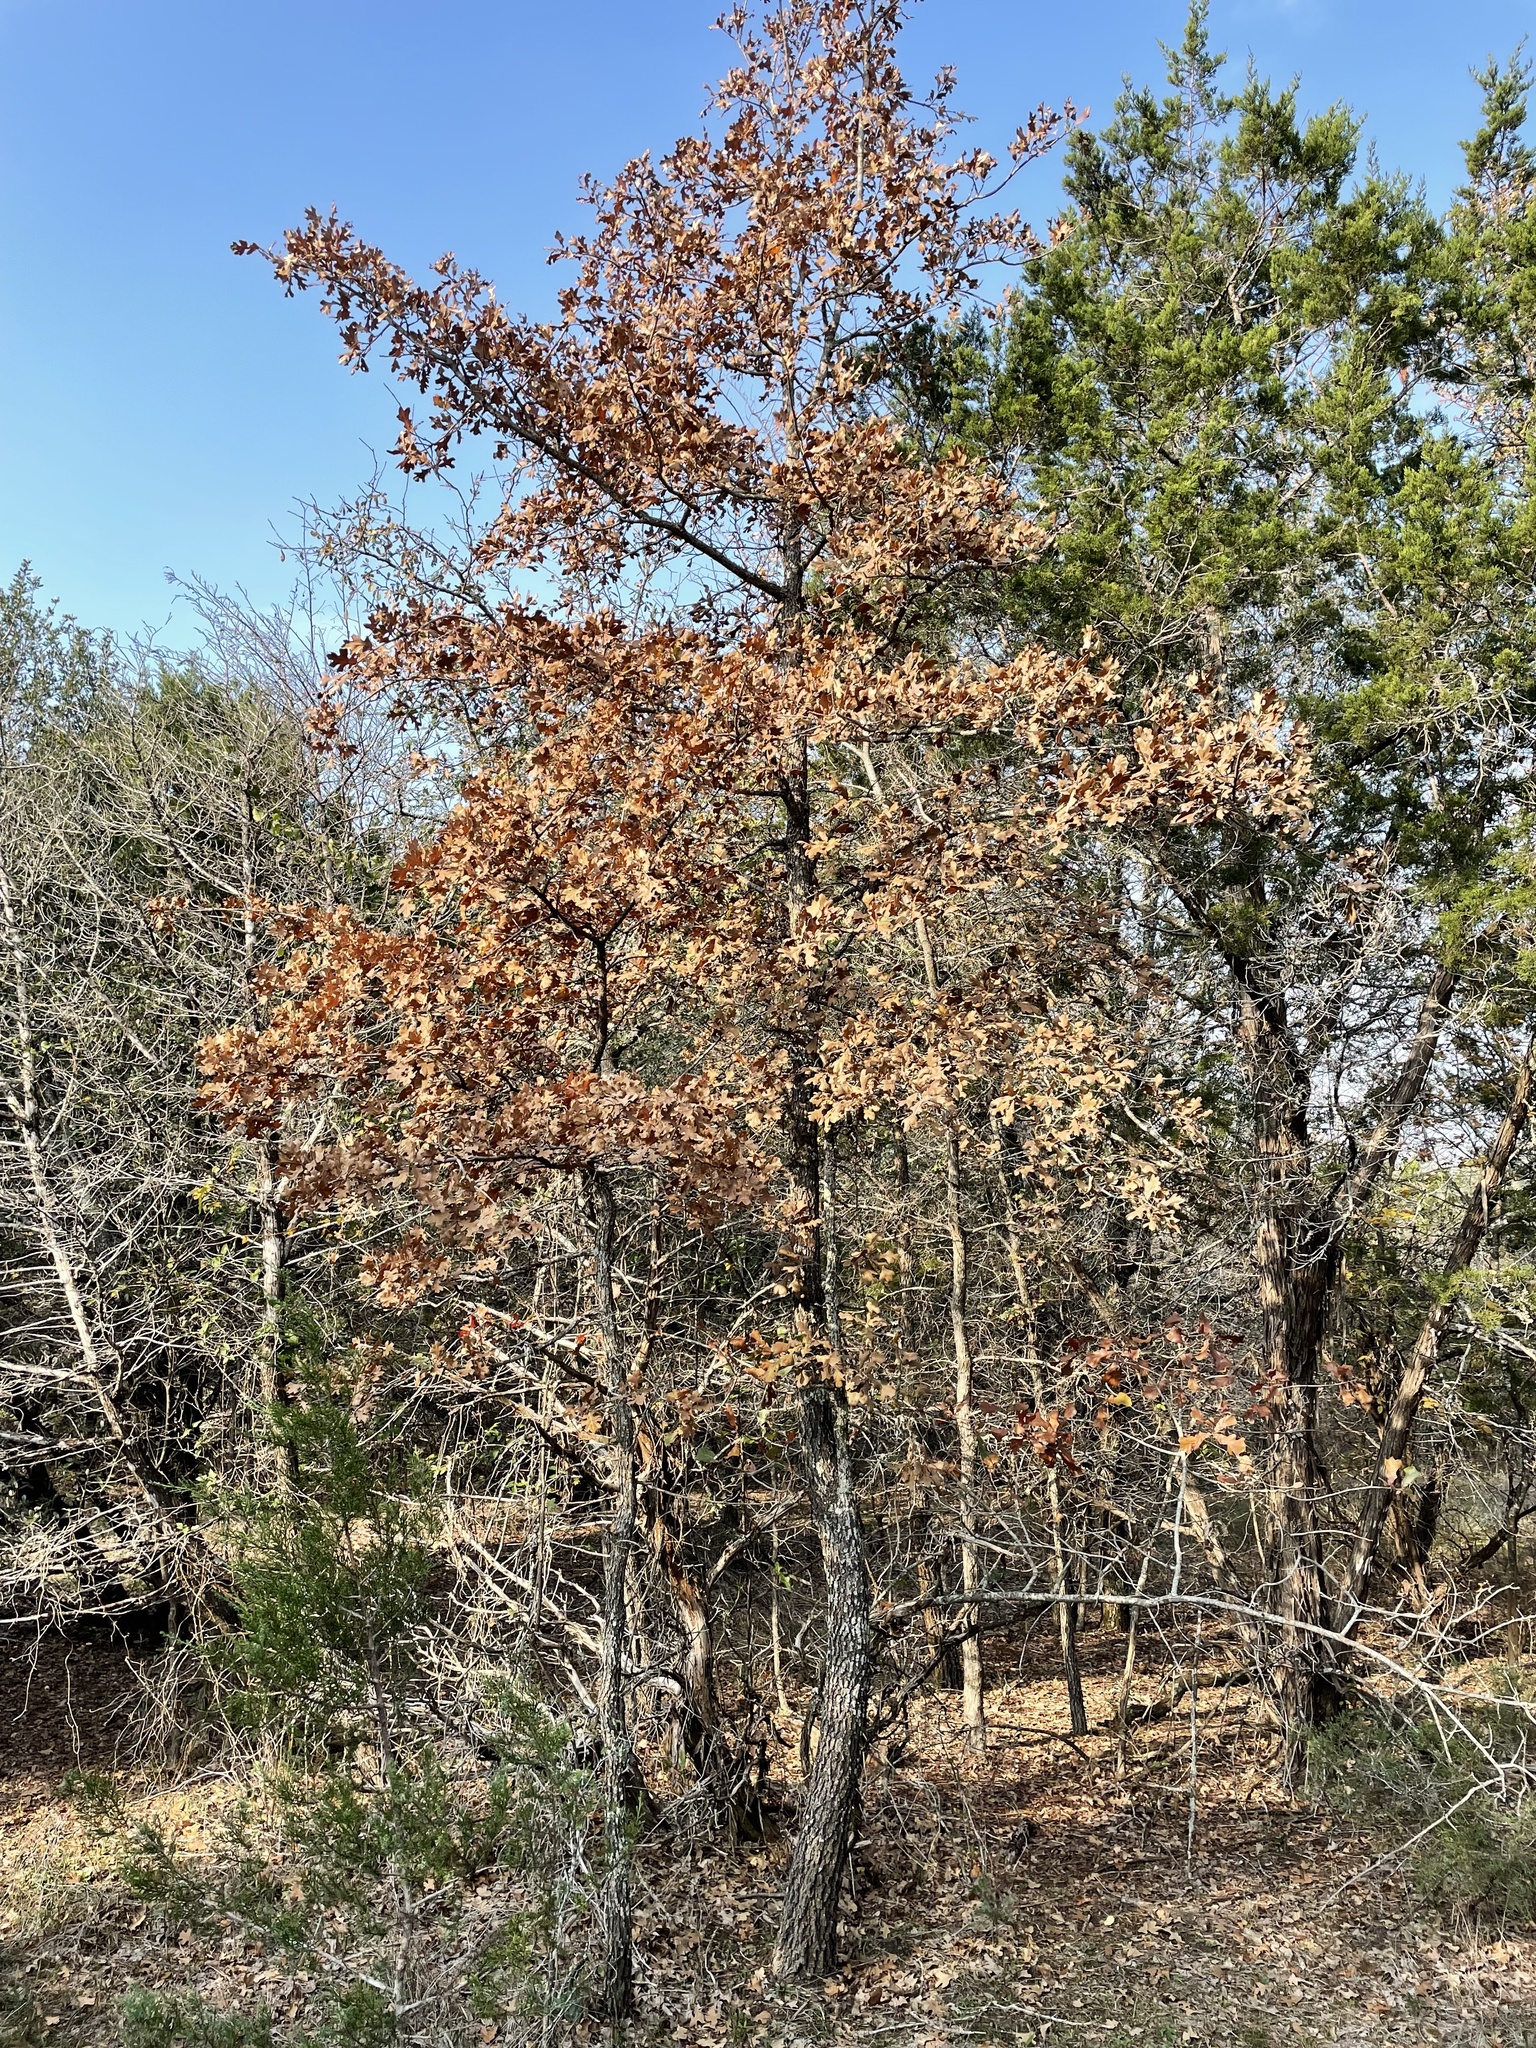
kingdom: Plantae
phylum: Tracheophyta
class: Magnoliopsida
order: Fagales
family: Fagaceae
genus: Quercus
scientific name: Quercus stellata
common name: Post oak
